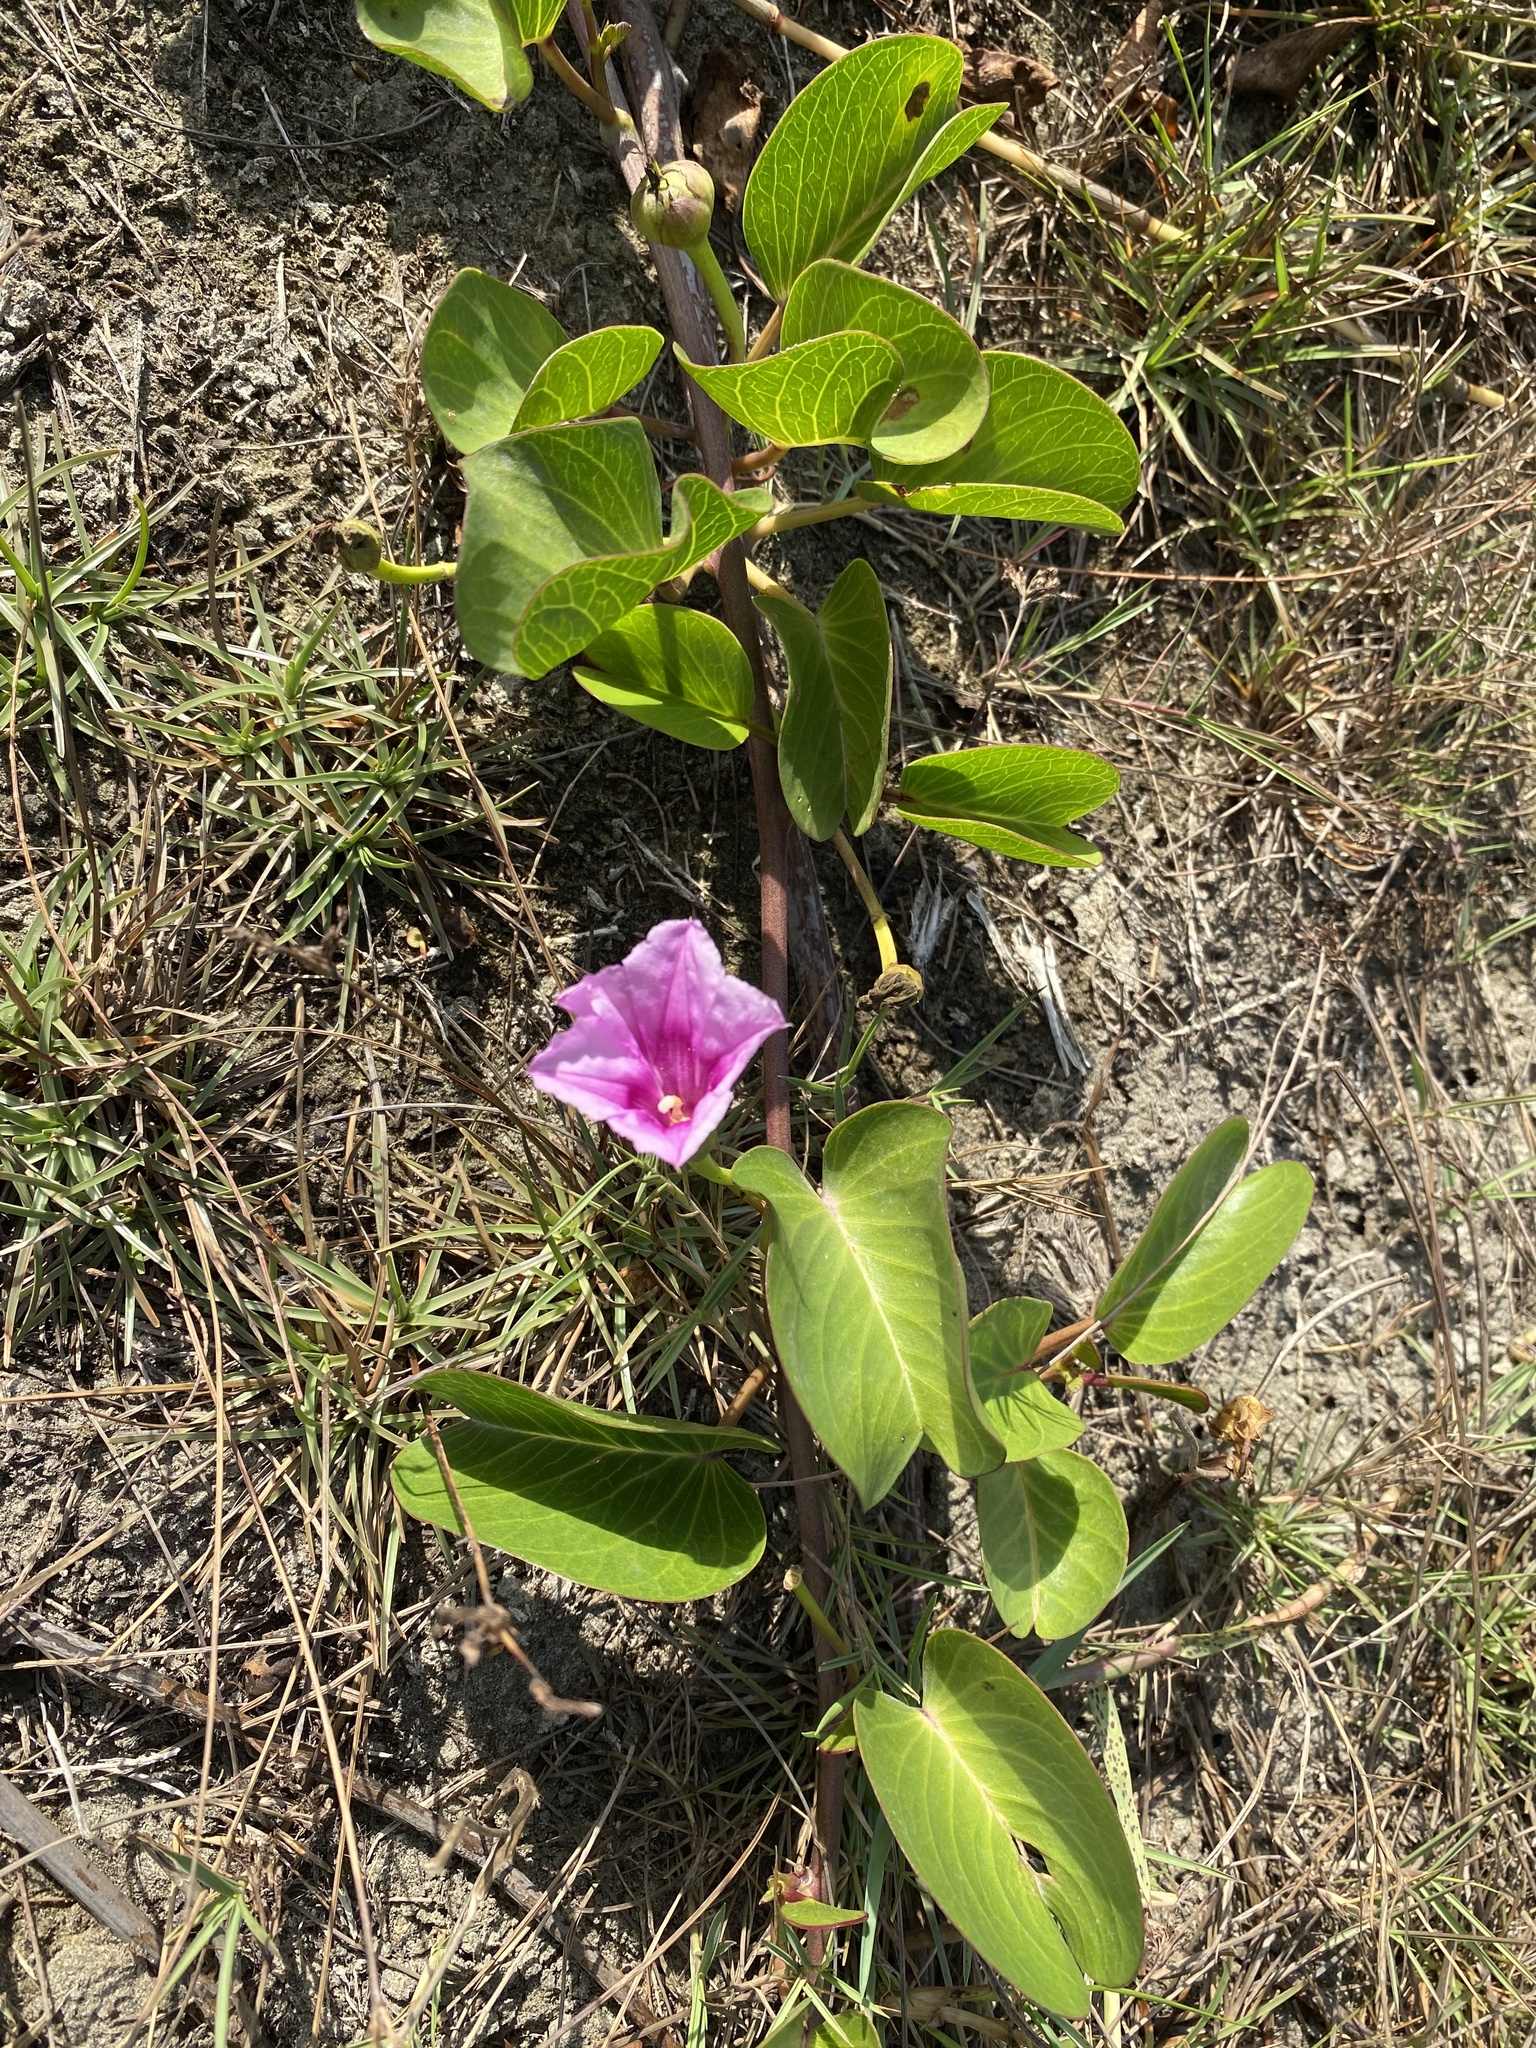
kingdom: Plantae
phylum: Tracheophyta
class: Magnoliopsida
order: Solanales
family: Convolvulaceae
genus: Ipomoea
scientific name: Ipomoea pes-caprae
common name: Beach morning glory
